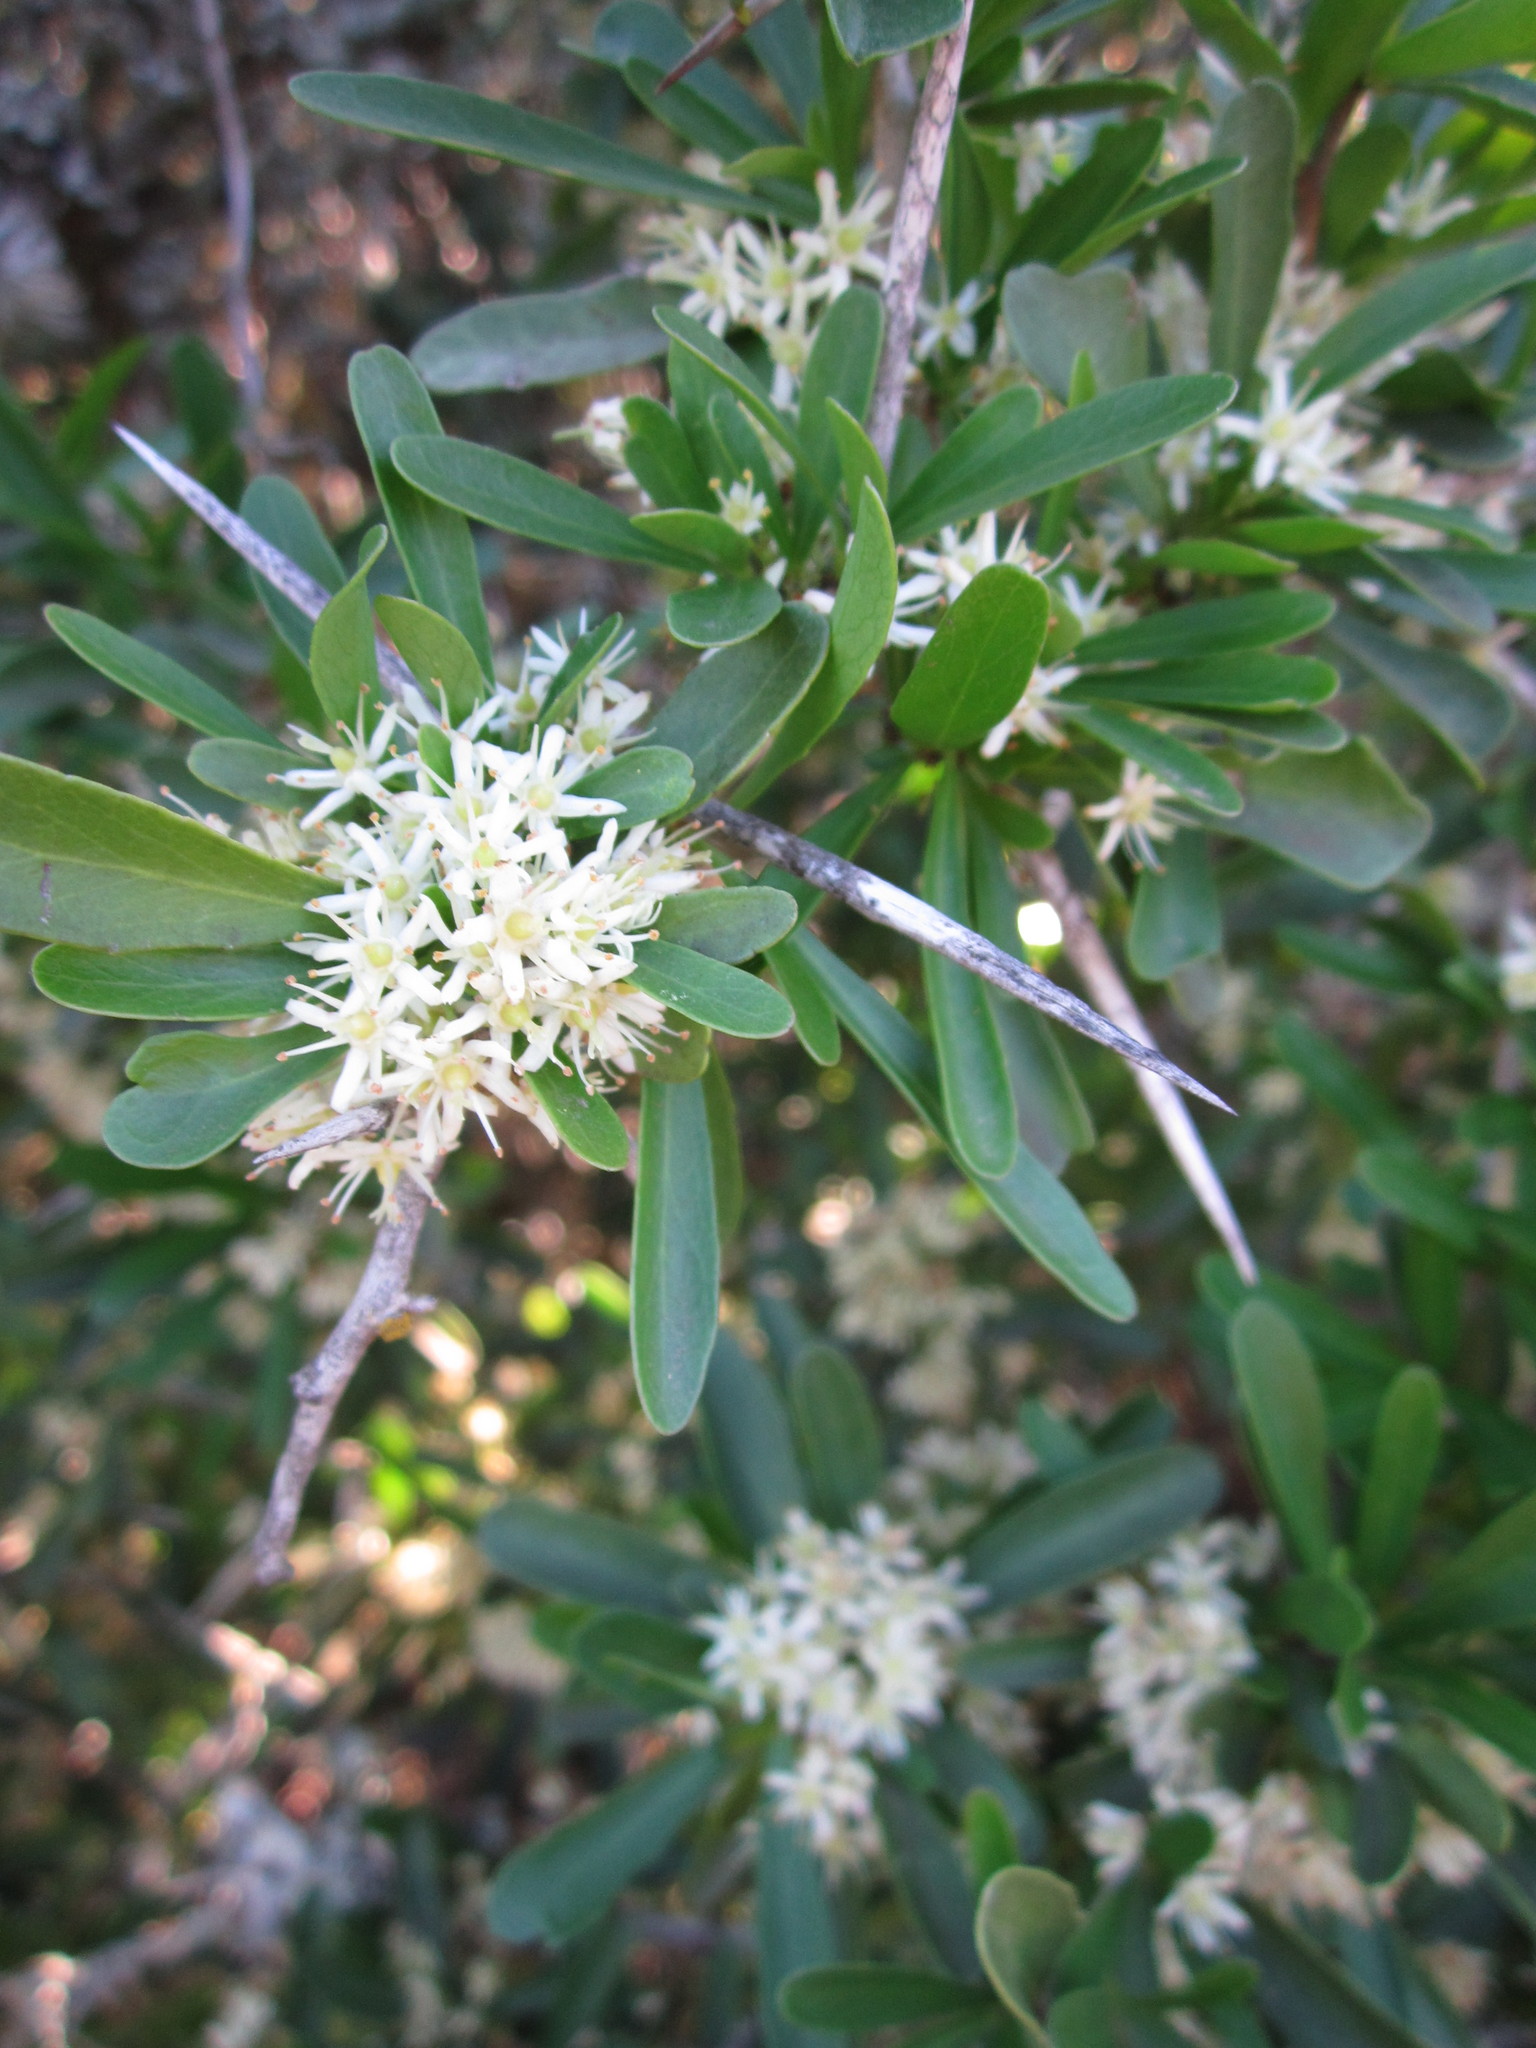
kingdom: Plantae
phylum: Tracheophyta
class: Magnoliopsida
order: Celastrales
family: Celastraceae
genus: Gymnosporia
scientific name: Gymnosporia polyacantha
